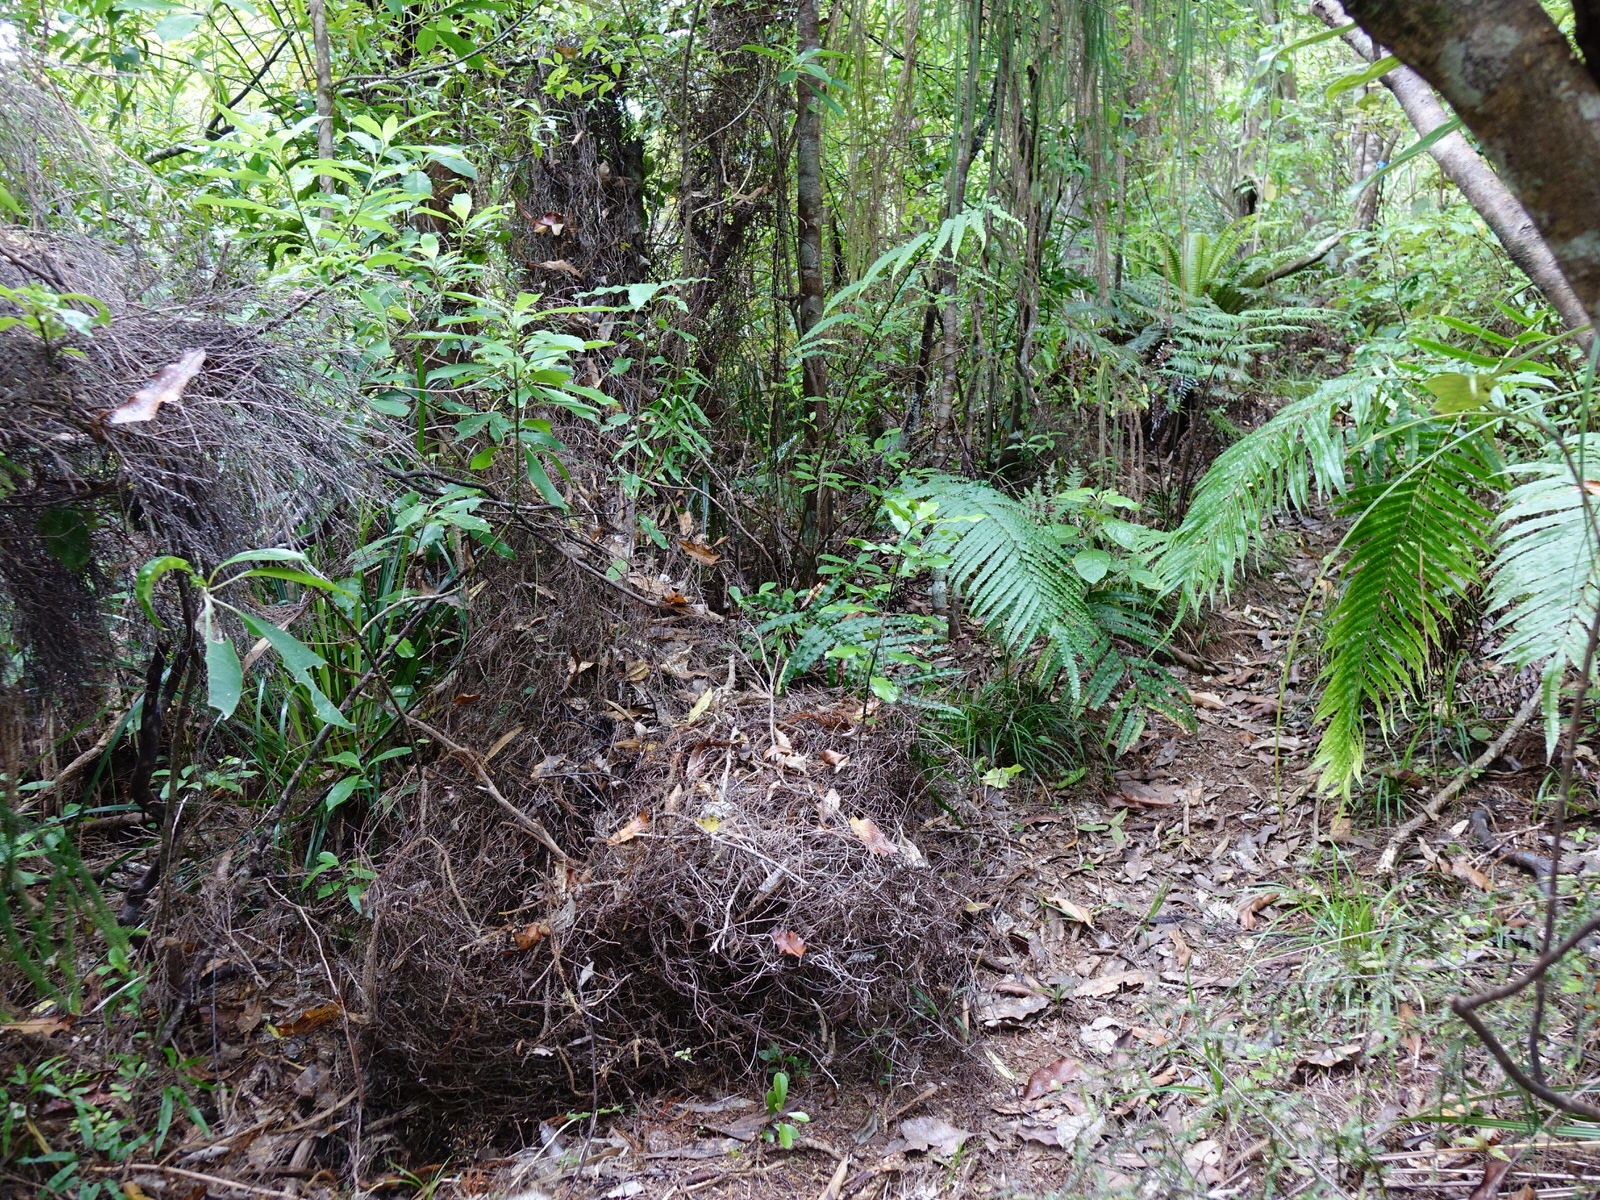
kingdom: Plantae
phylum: Tracheophyta
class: Polypodiopsida
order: Schizaeales
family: Lygodiaceae
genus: Lygodium
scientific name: Lygodium articulatum
